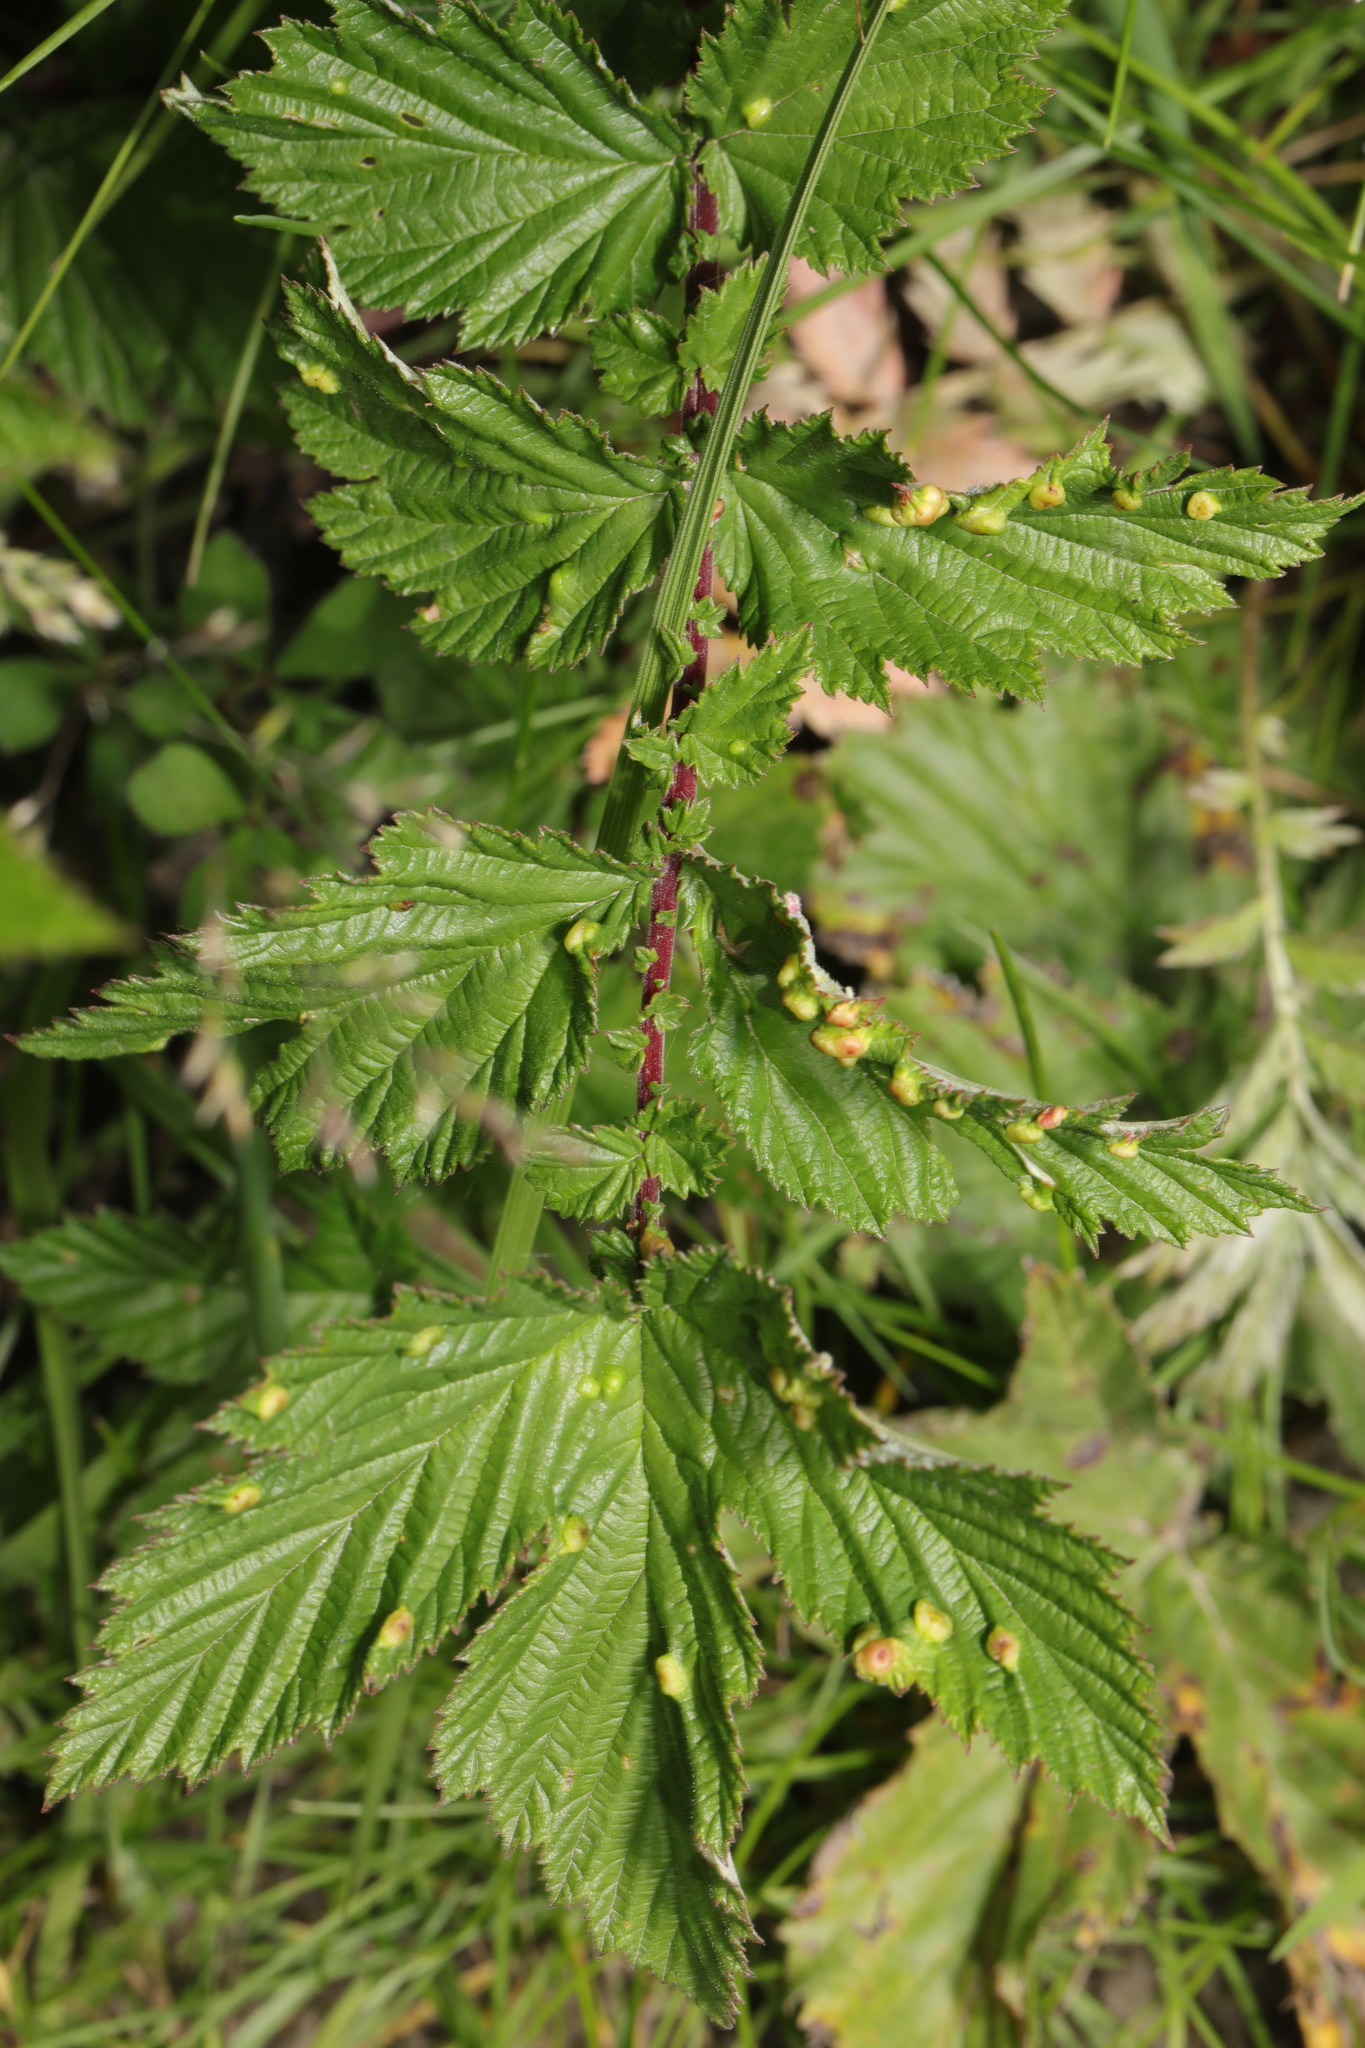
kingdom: Plantae
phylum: Tracheophyta
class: Magnoliopsida
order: Rosales
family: Rosaceae
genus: Filipendula
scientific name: Filipendula ulmaria
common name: Meadowsweet
